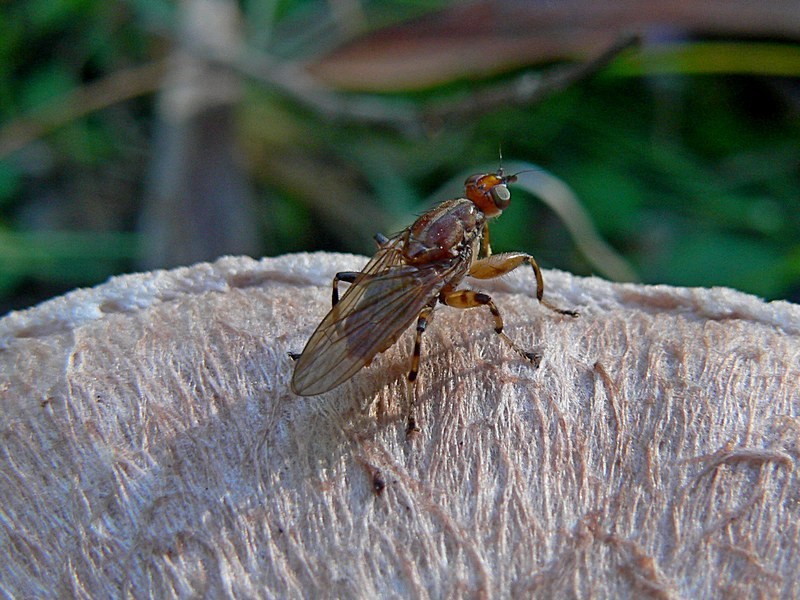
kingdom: Animalia
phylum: Arthropoda
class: Insecta
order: Diptera
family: Heleomyzidae
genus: Tapeigaster
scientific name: Tapeigaster annulipes
